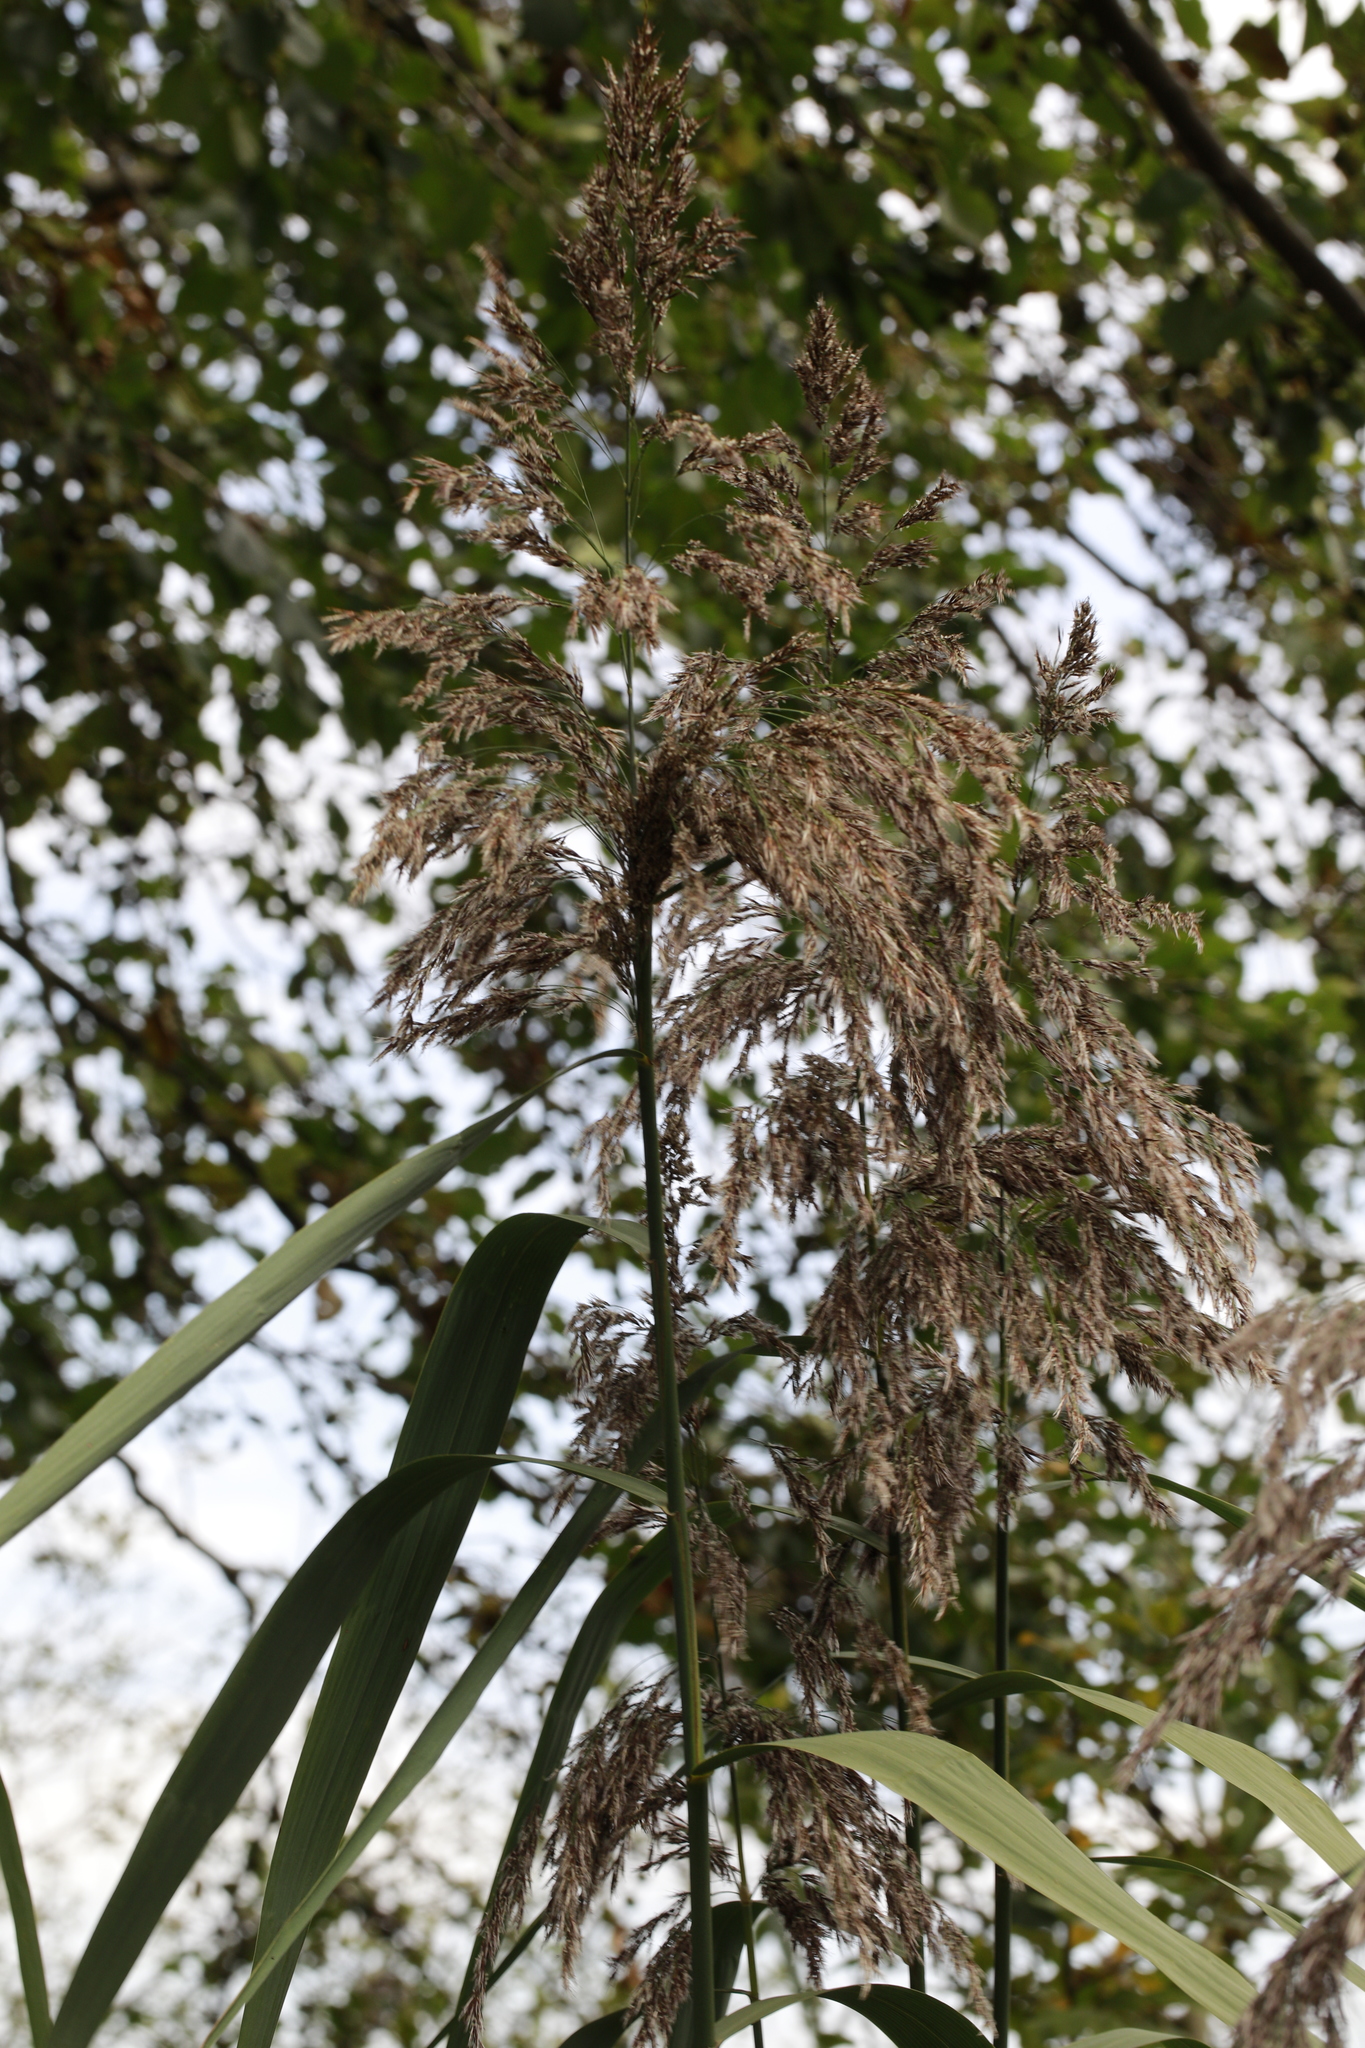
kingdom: Plantae
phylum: Tracheophyta
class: Liliopsida
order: Poales
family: Poaceae
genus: Phragmites
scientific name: Phragmites australis
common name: Common reed
